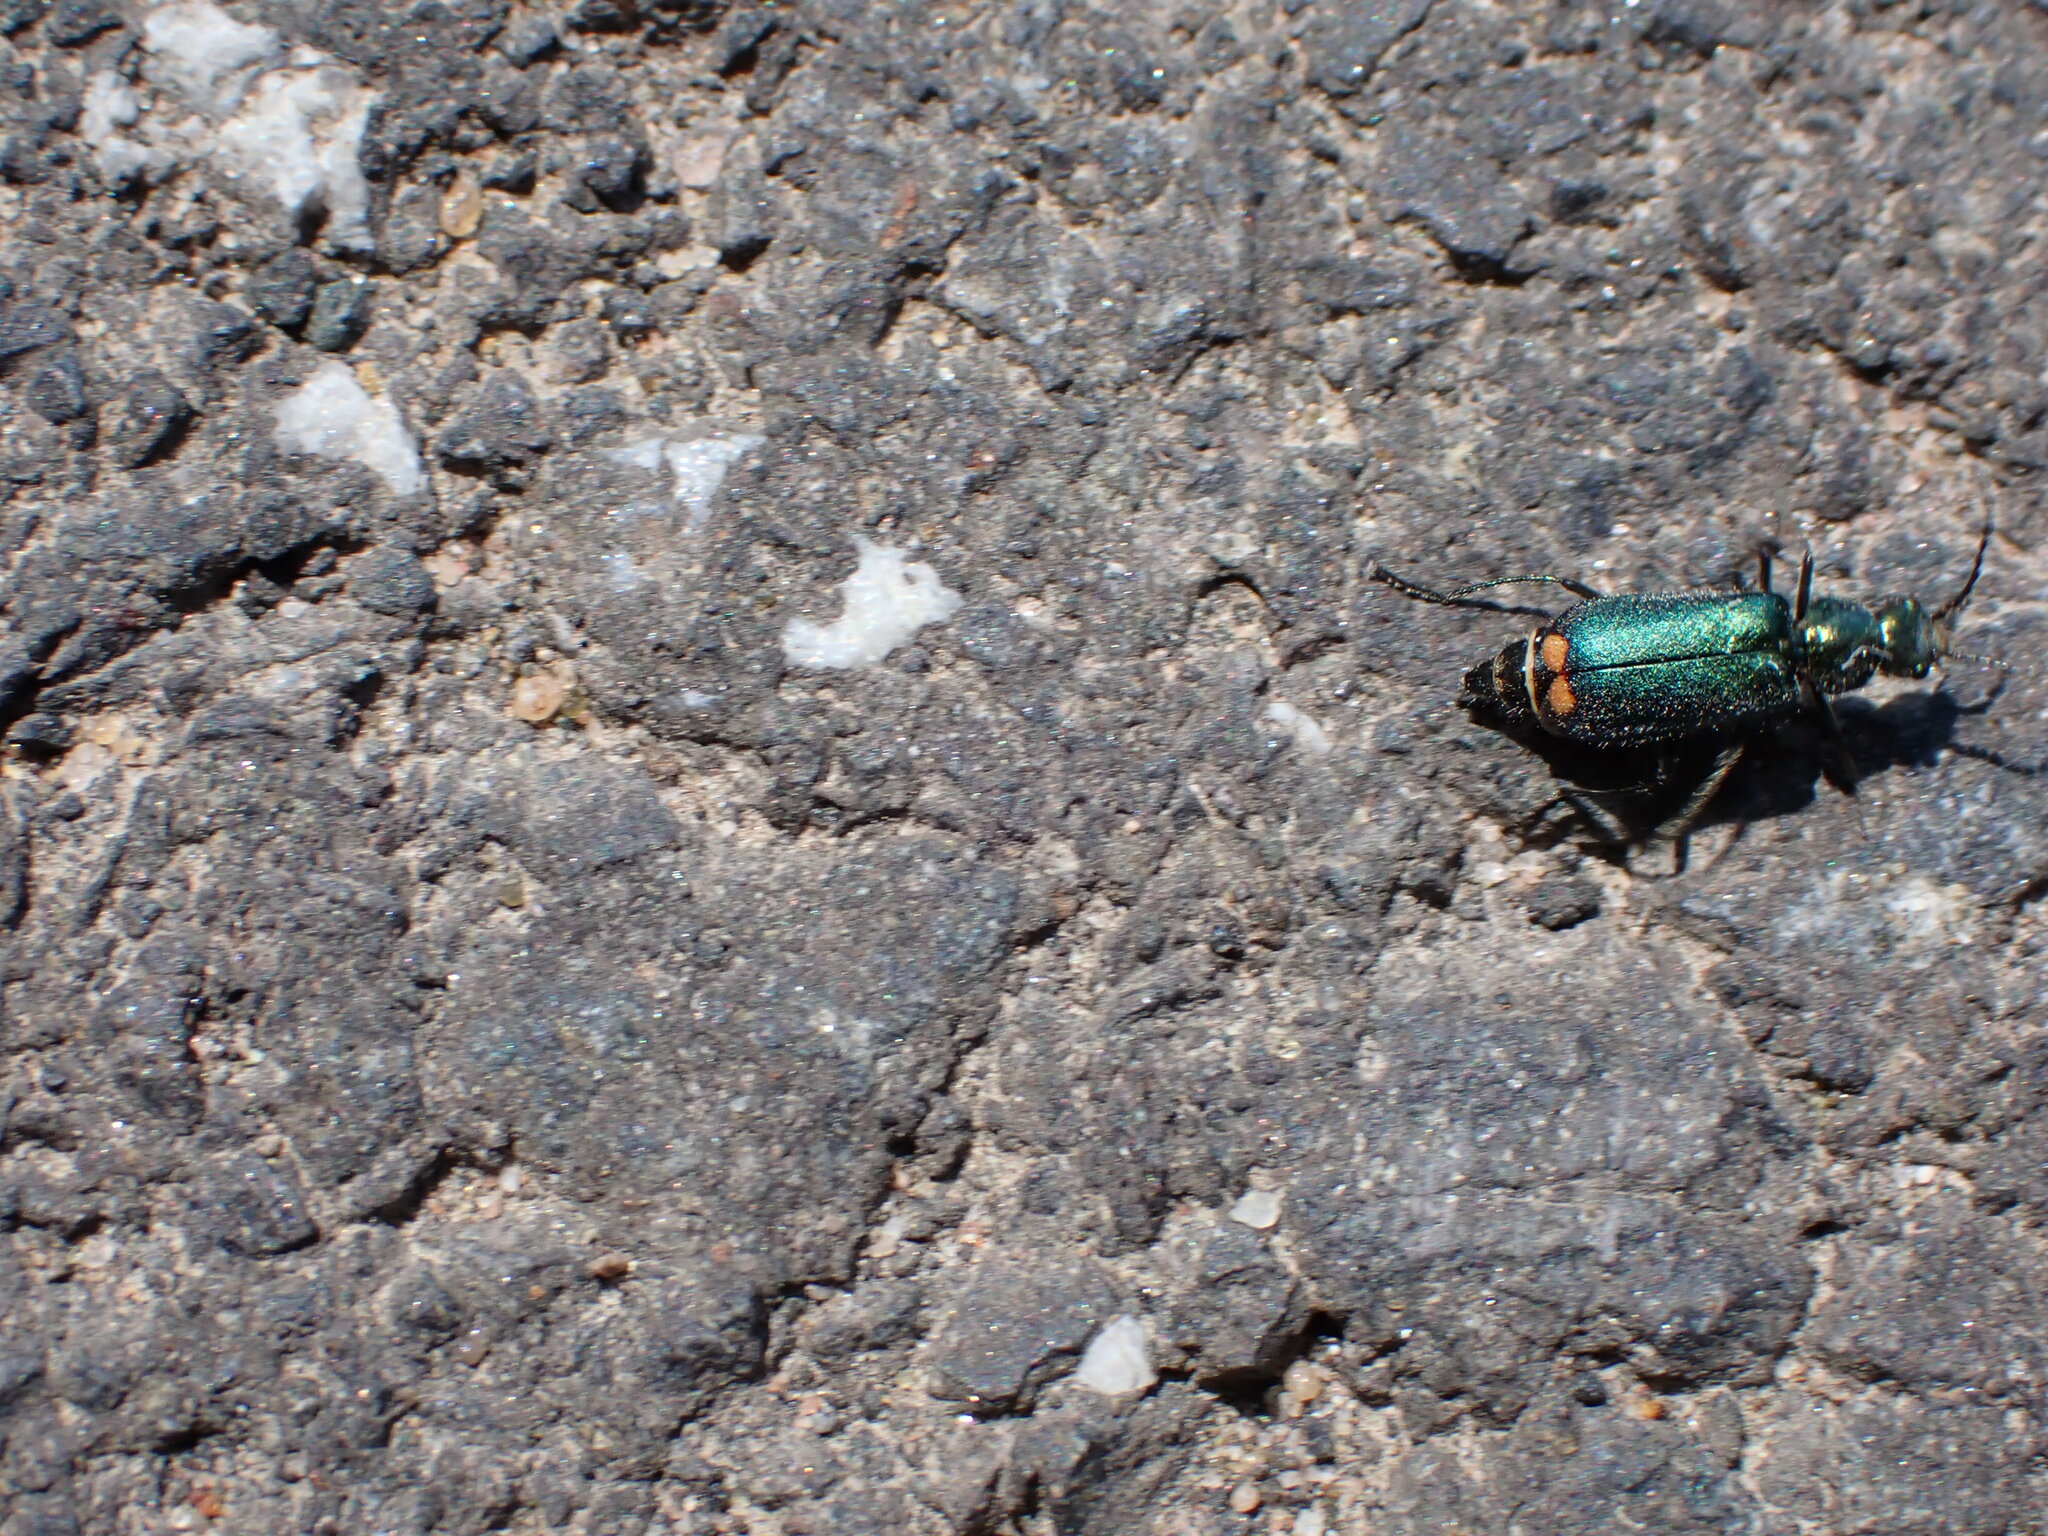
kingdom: Animalia
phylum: Arthropoda
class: Insecta
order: Coleoptera
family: Melyridae
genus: Malachius
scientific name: Malachius bipustulatus
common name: Malachite beetle
